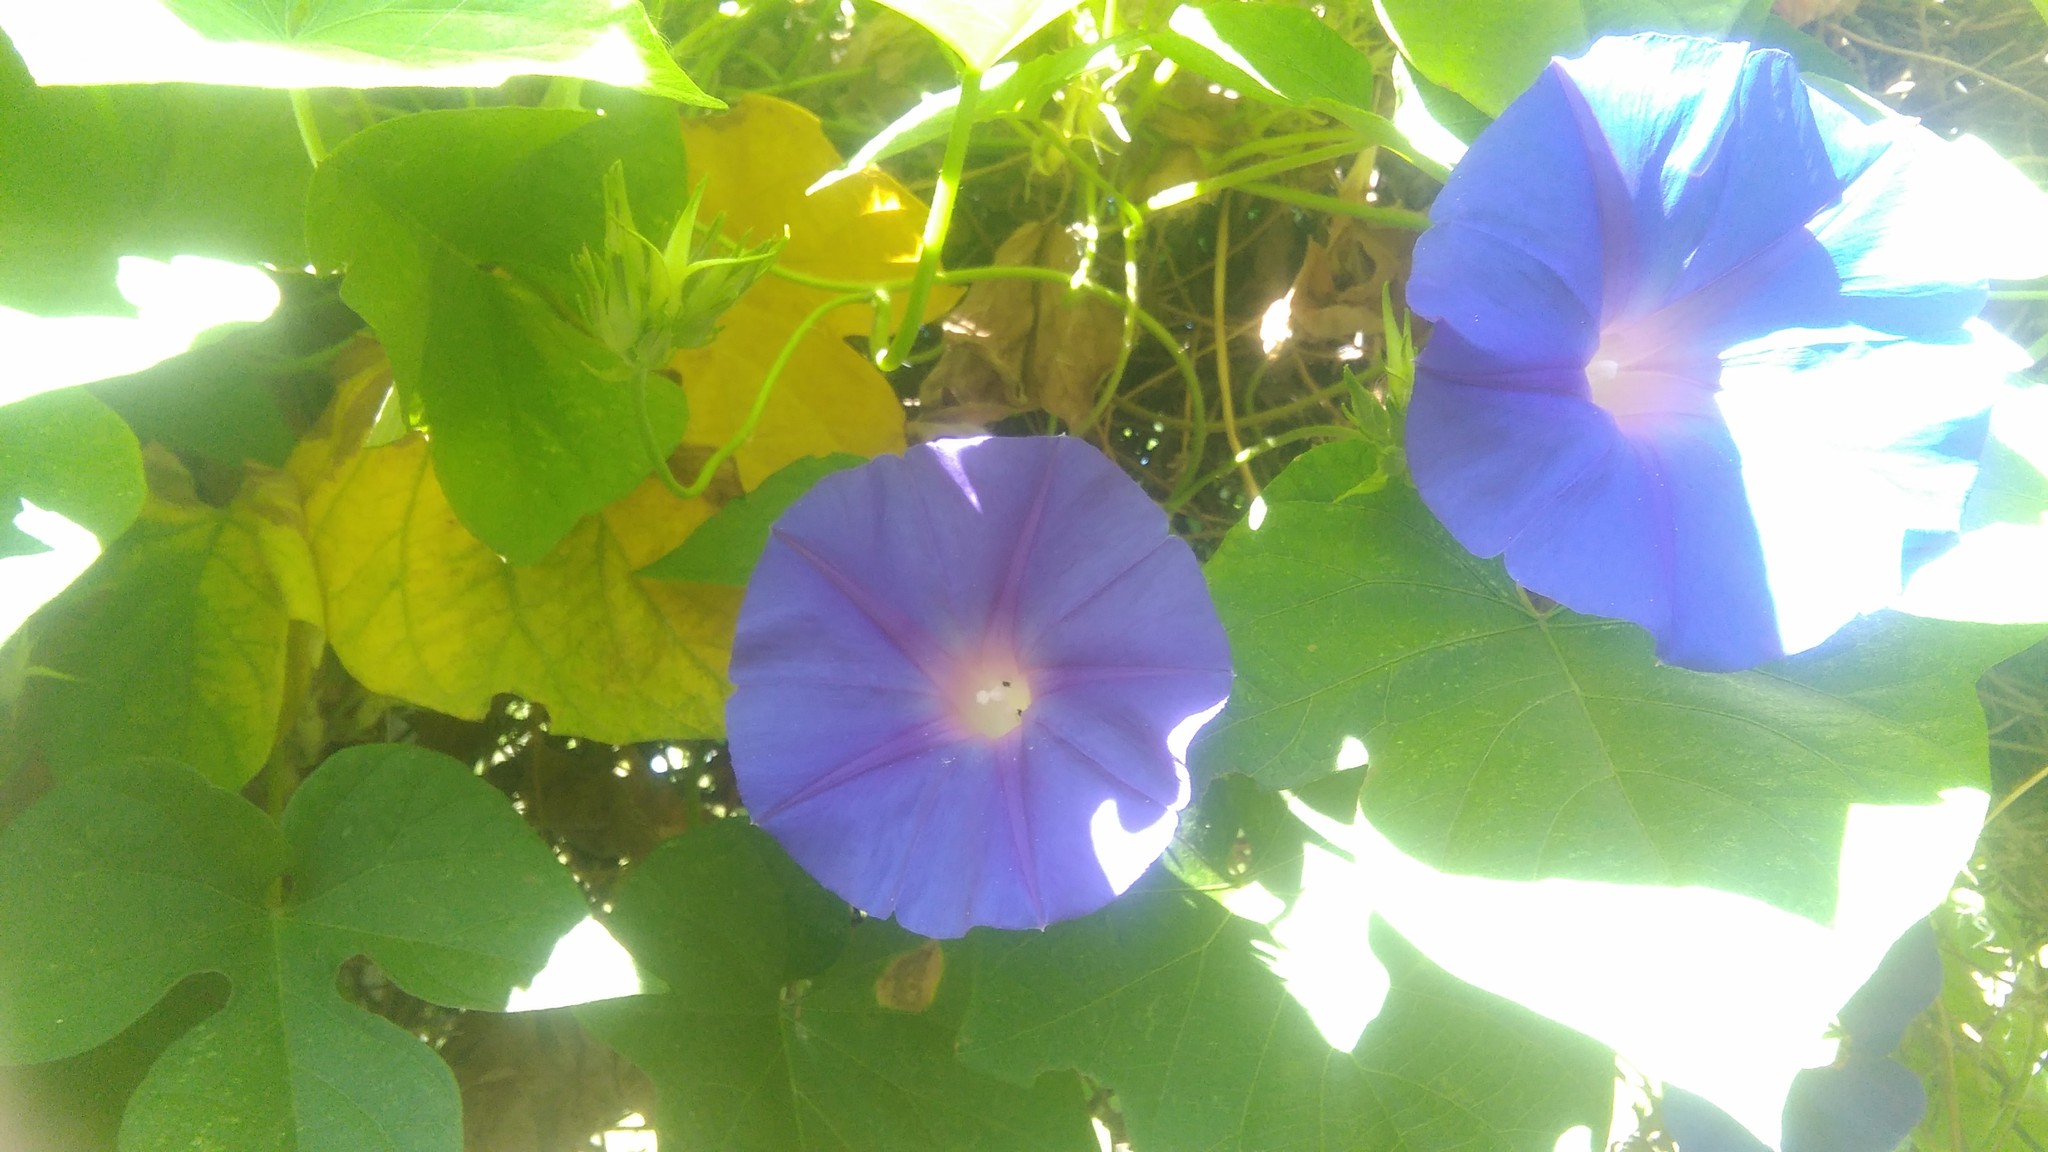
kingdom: Plantae
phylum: Tracheophyta
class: Magnoliopsida
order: Solanales
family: Convolvulaceae
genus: Ipomoea
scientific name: Ipomoea indica
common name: Blue dawnflower
